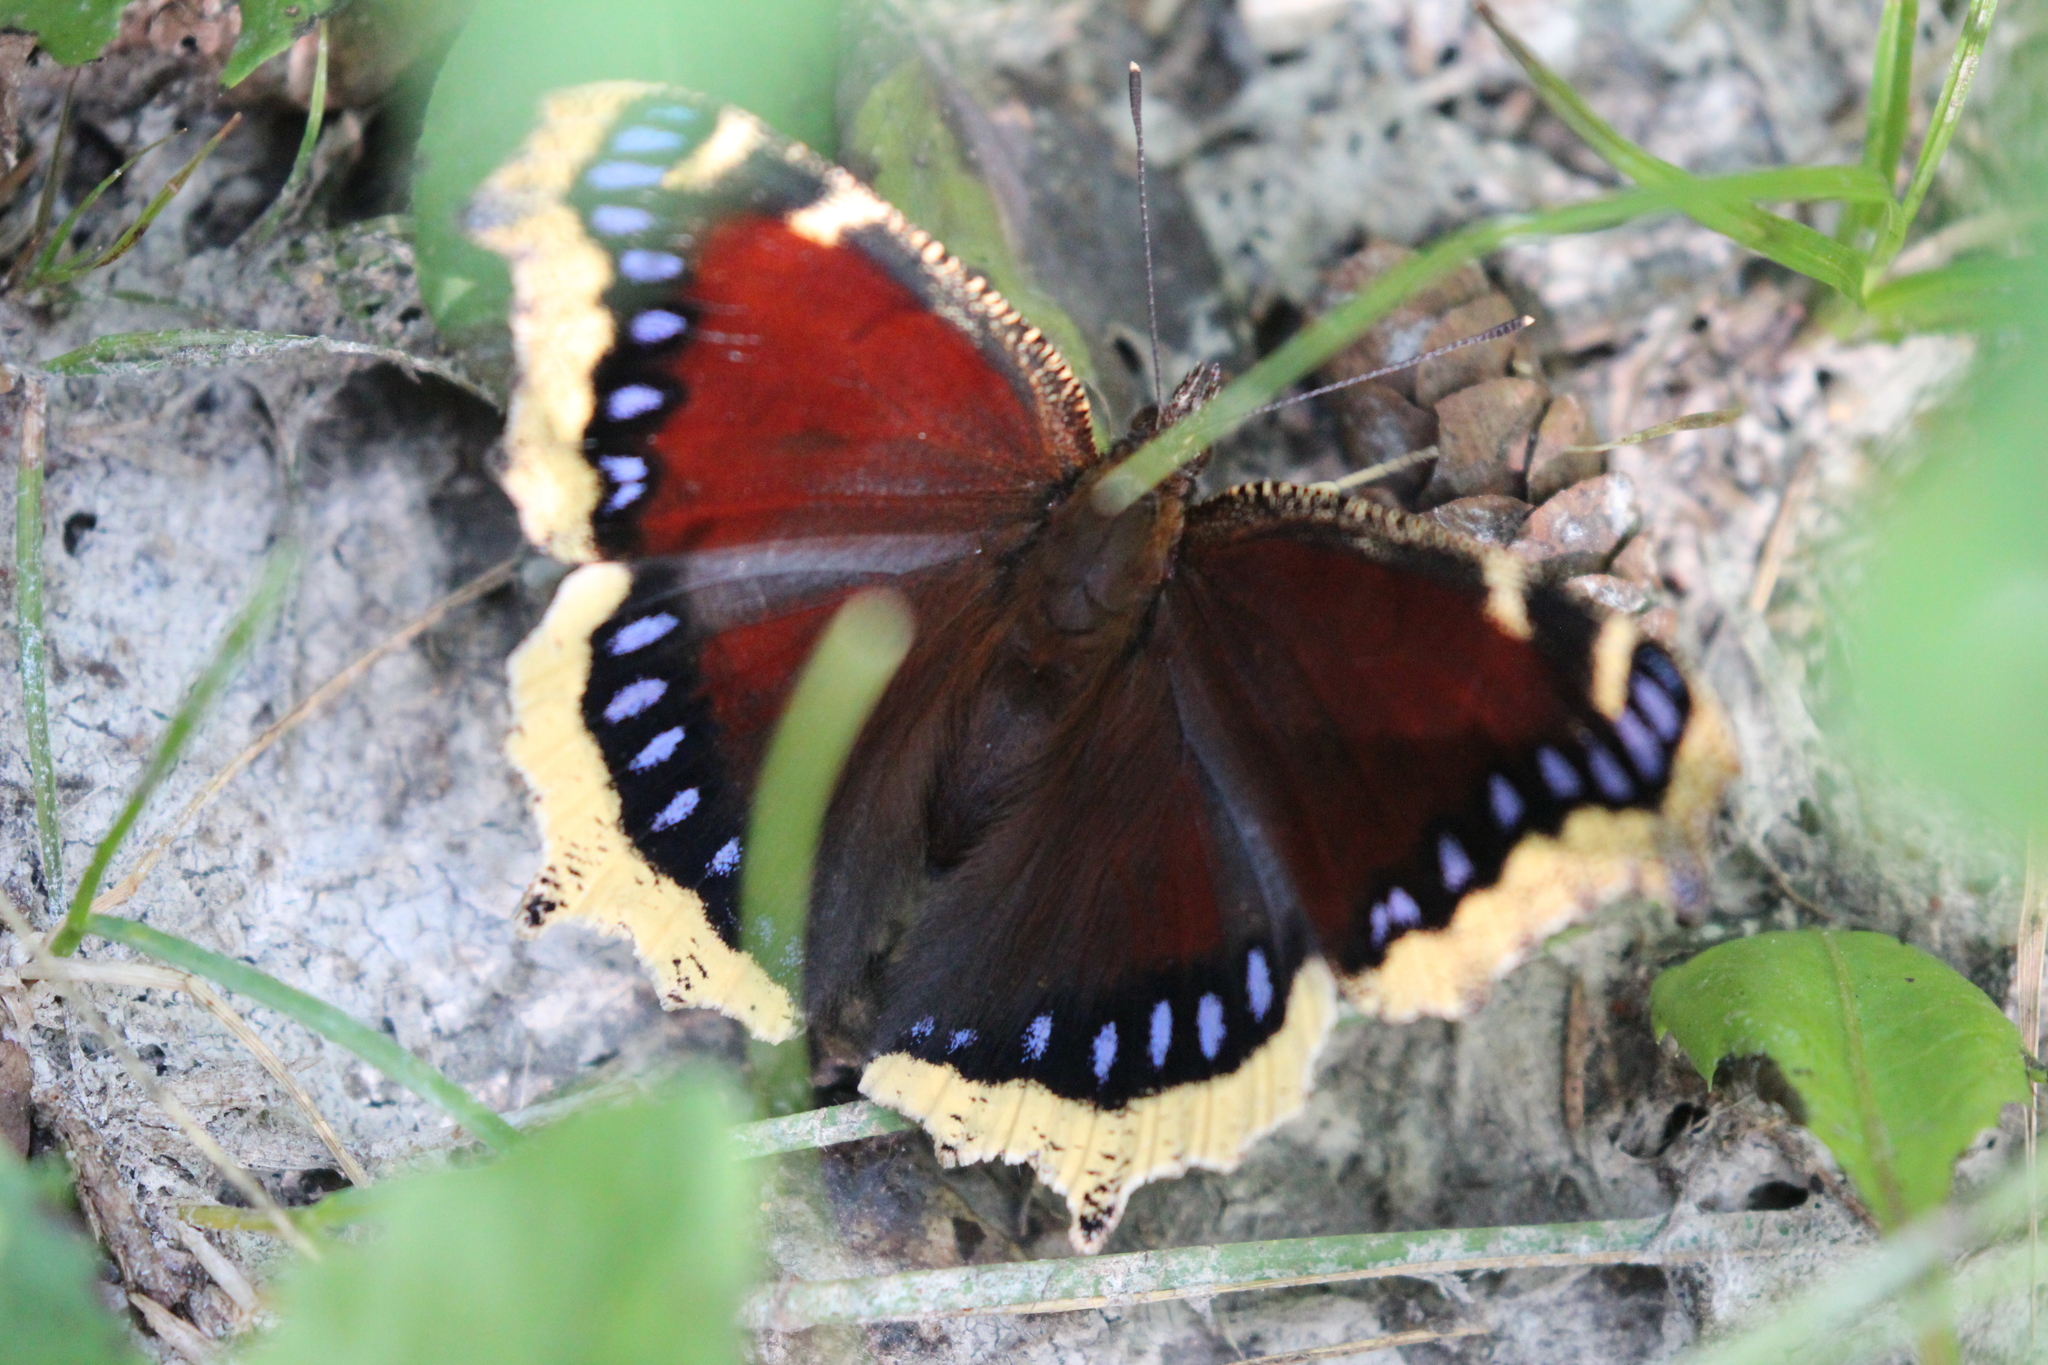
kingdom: Animalia
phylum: Arthropoda
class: Insecta
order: Lepidoptera
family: Nymphalidae
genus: Nymphalis
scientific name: Nymphalis antiopa
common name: Camberwell beauty
